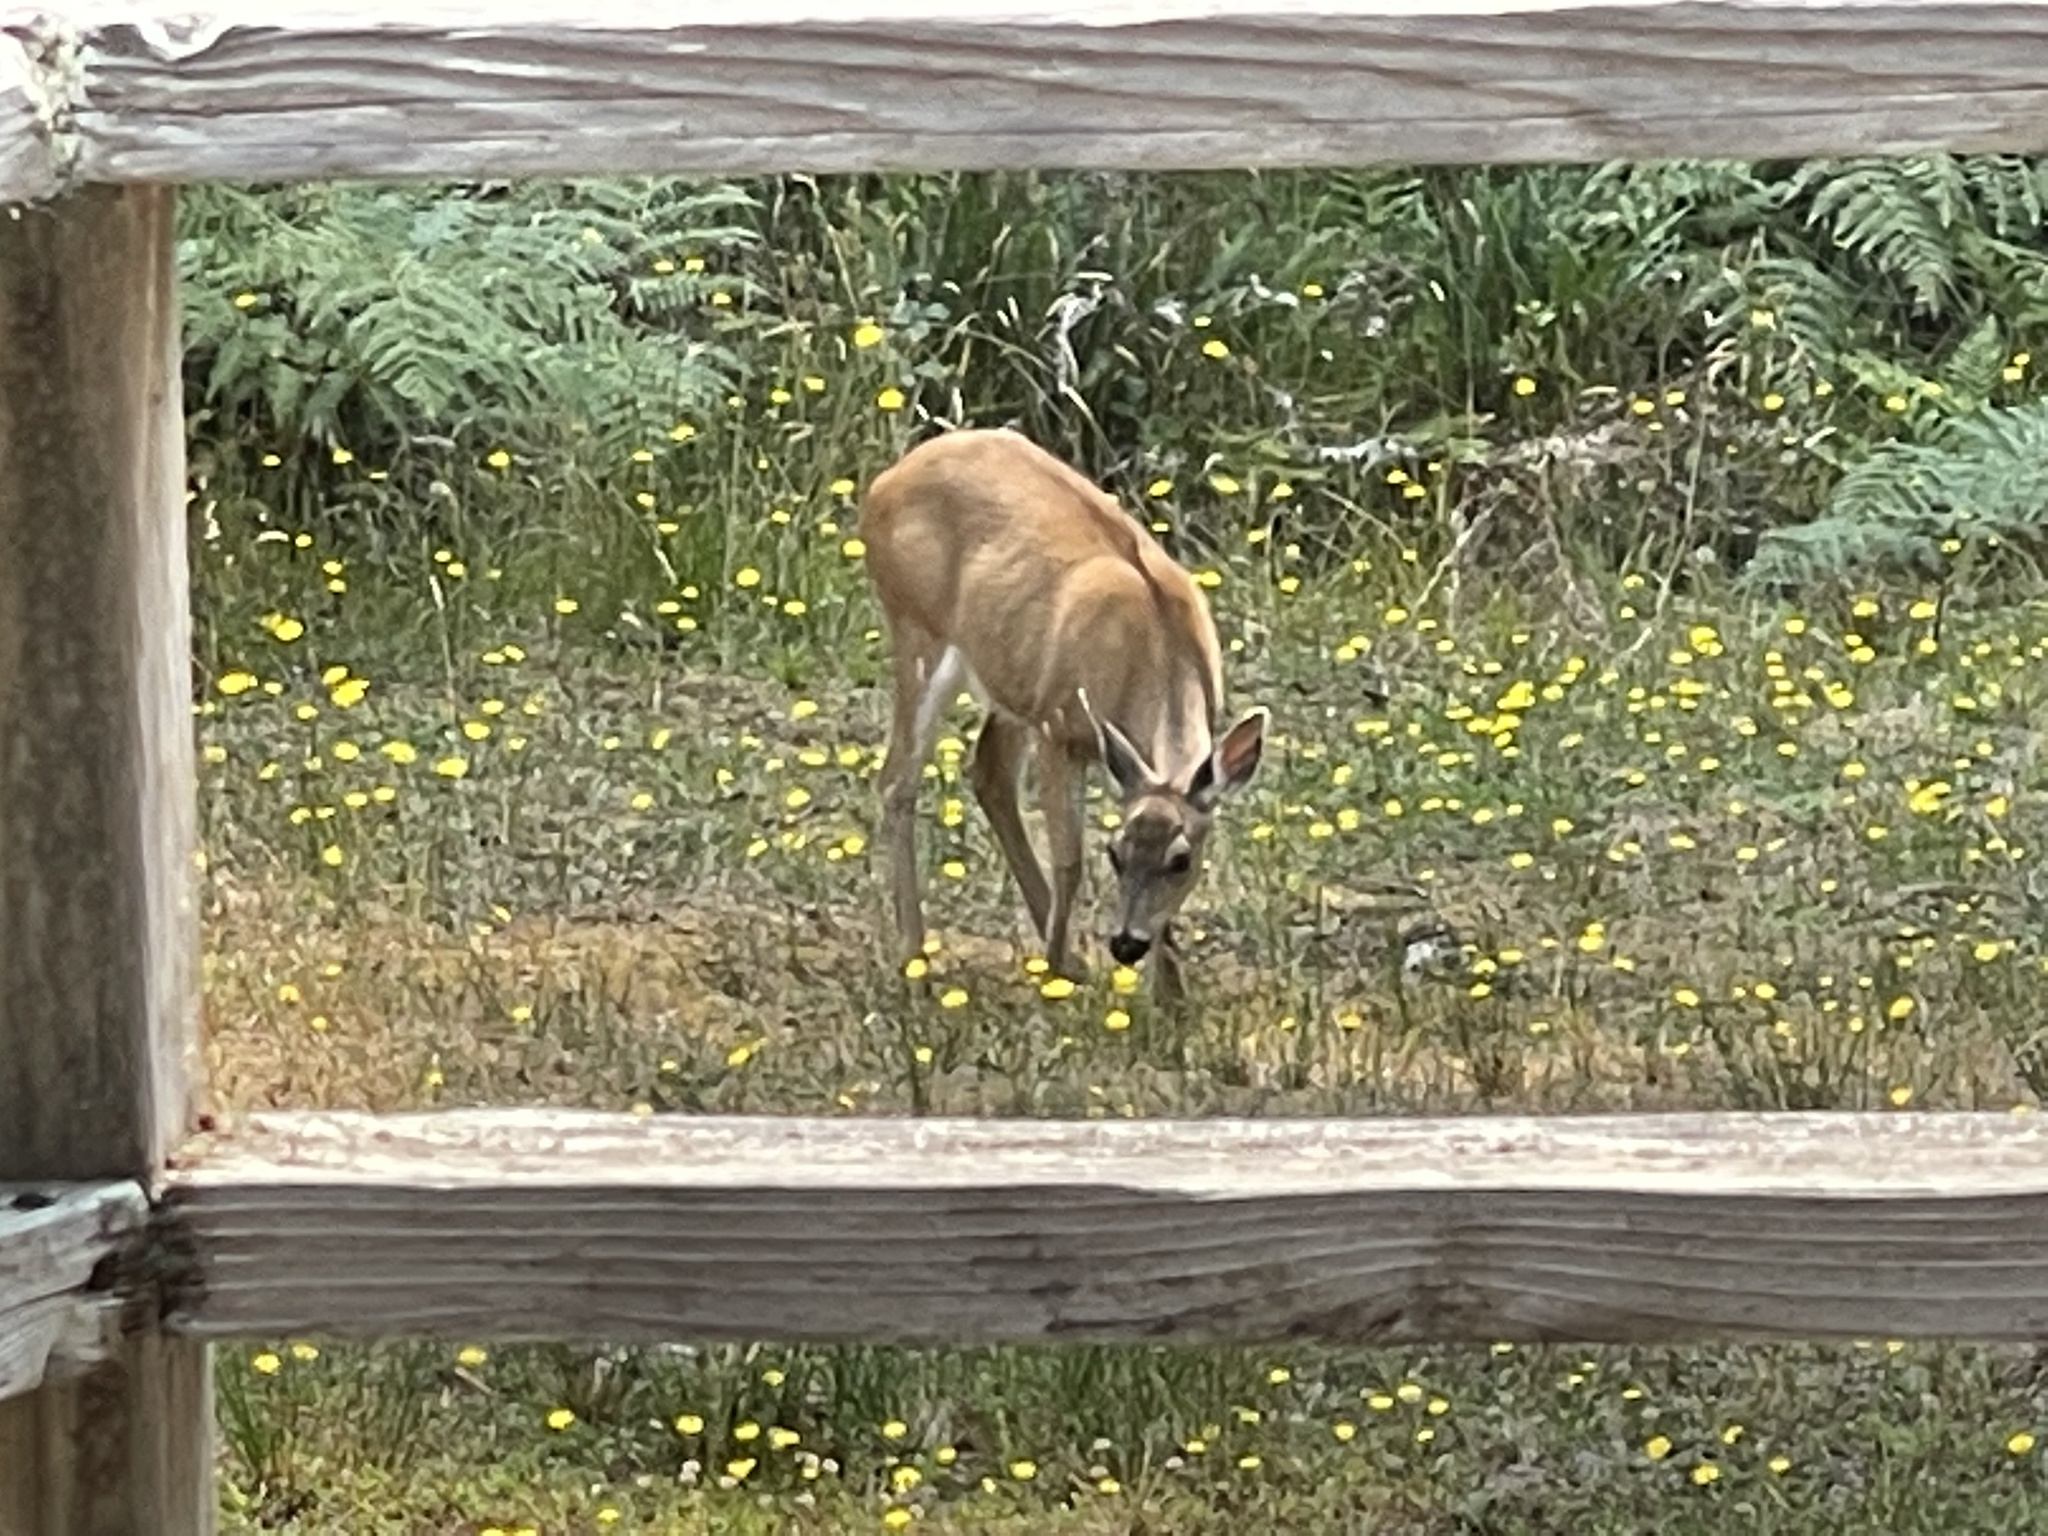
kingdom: Animalia
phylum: Chordata
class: Mammalia
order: Artiodactyla
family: Cervidae
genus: Odocoileus
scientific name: Odocoileus hemionus
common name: Mule deer
